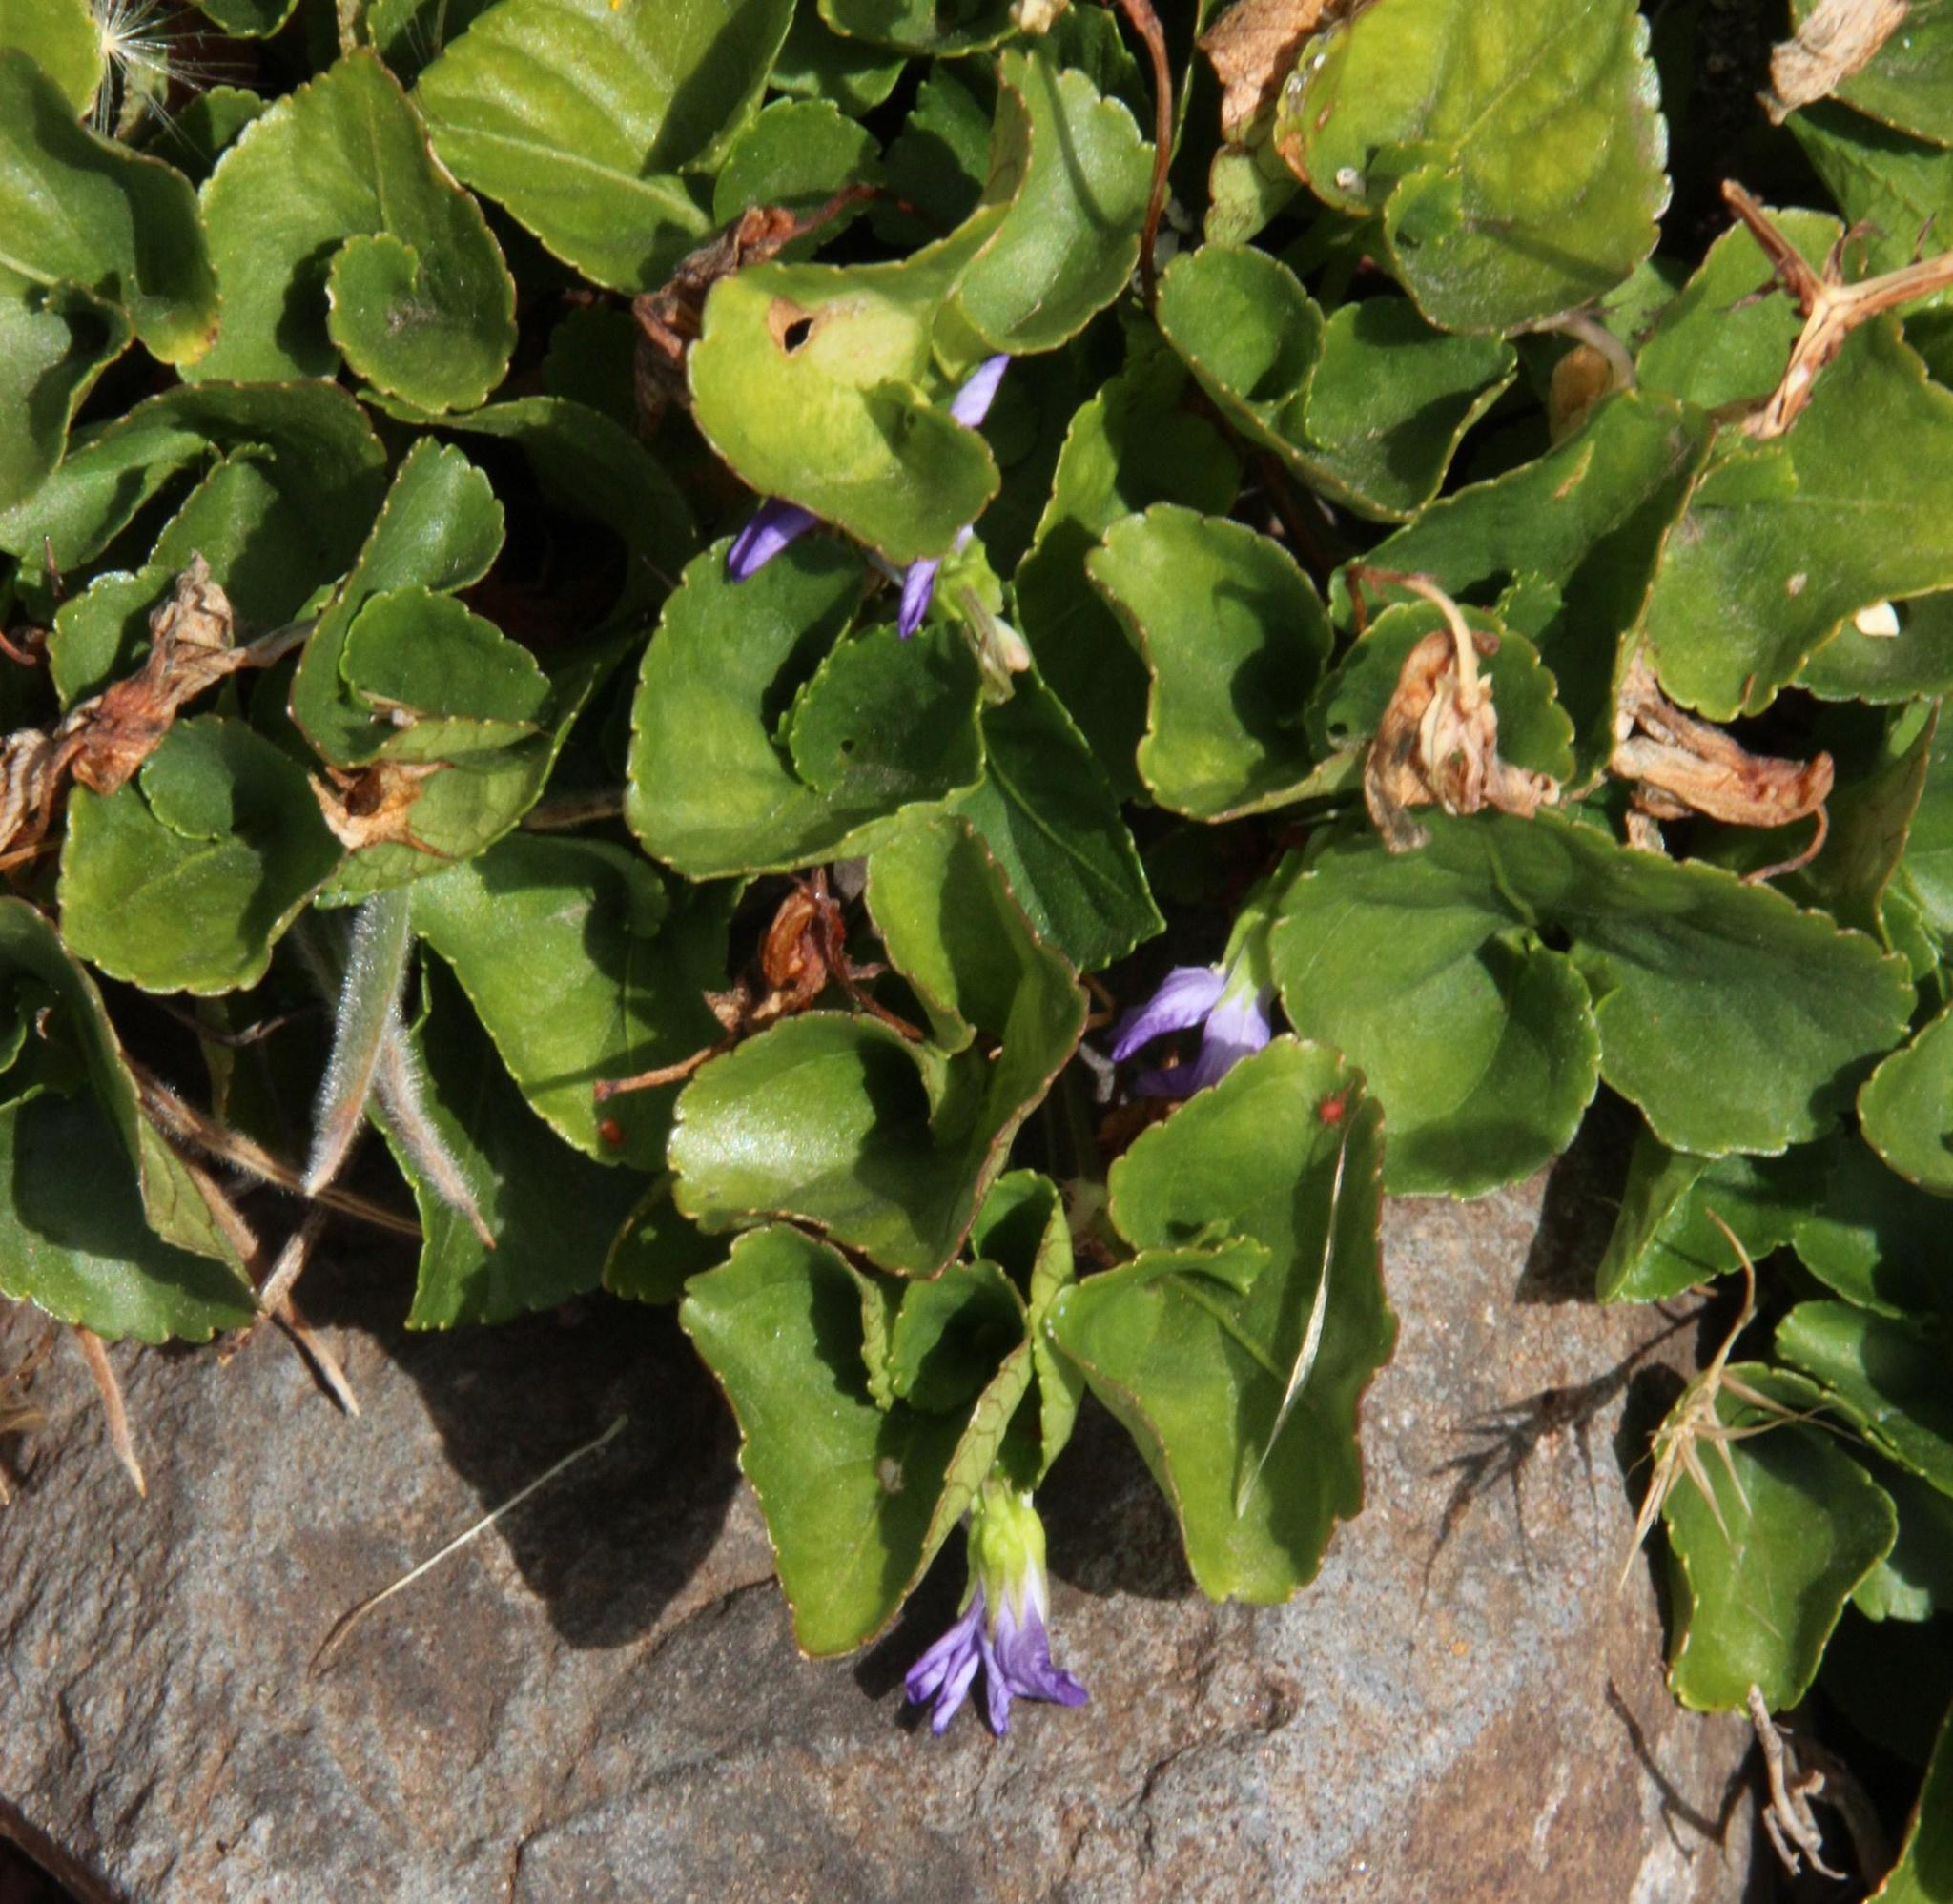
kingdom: Plantae
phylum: Tracheophyta
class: Magnoliopsida
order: Malpighiales
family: Violaceae
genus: Viola
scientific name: Viola riviniana
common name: Common dog-violet
